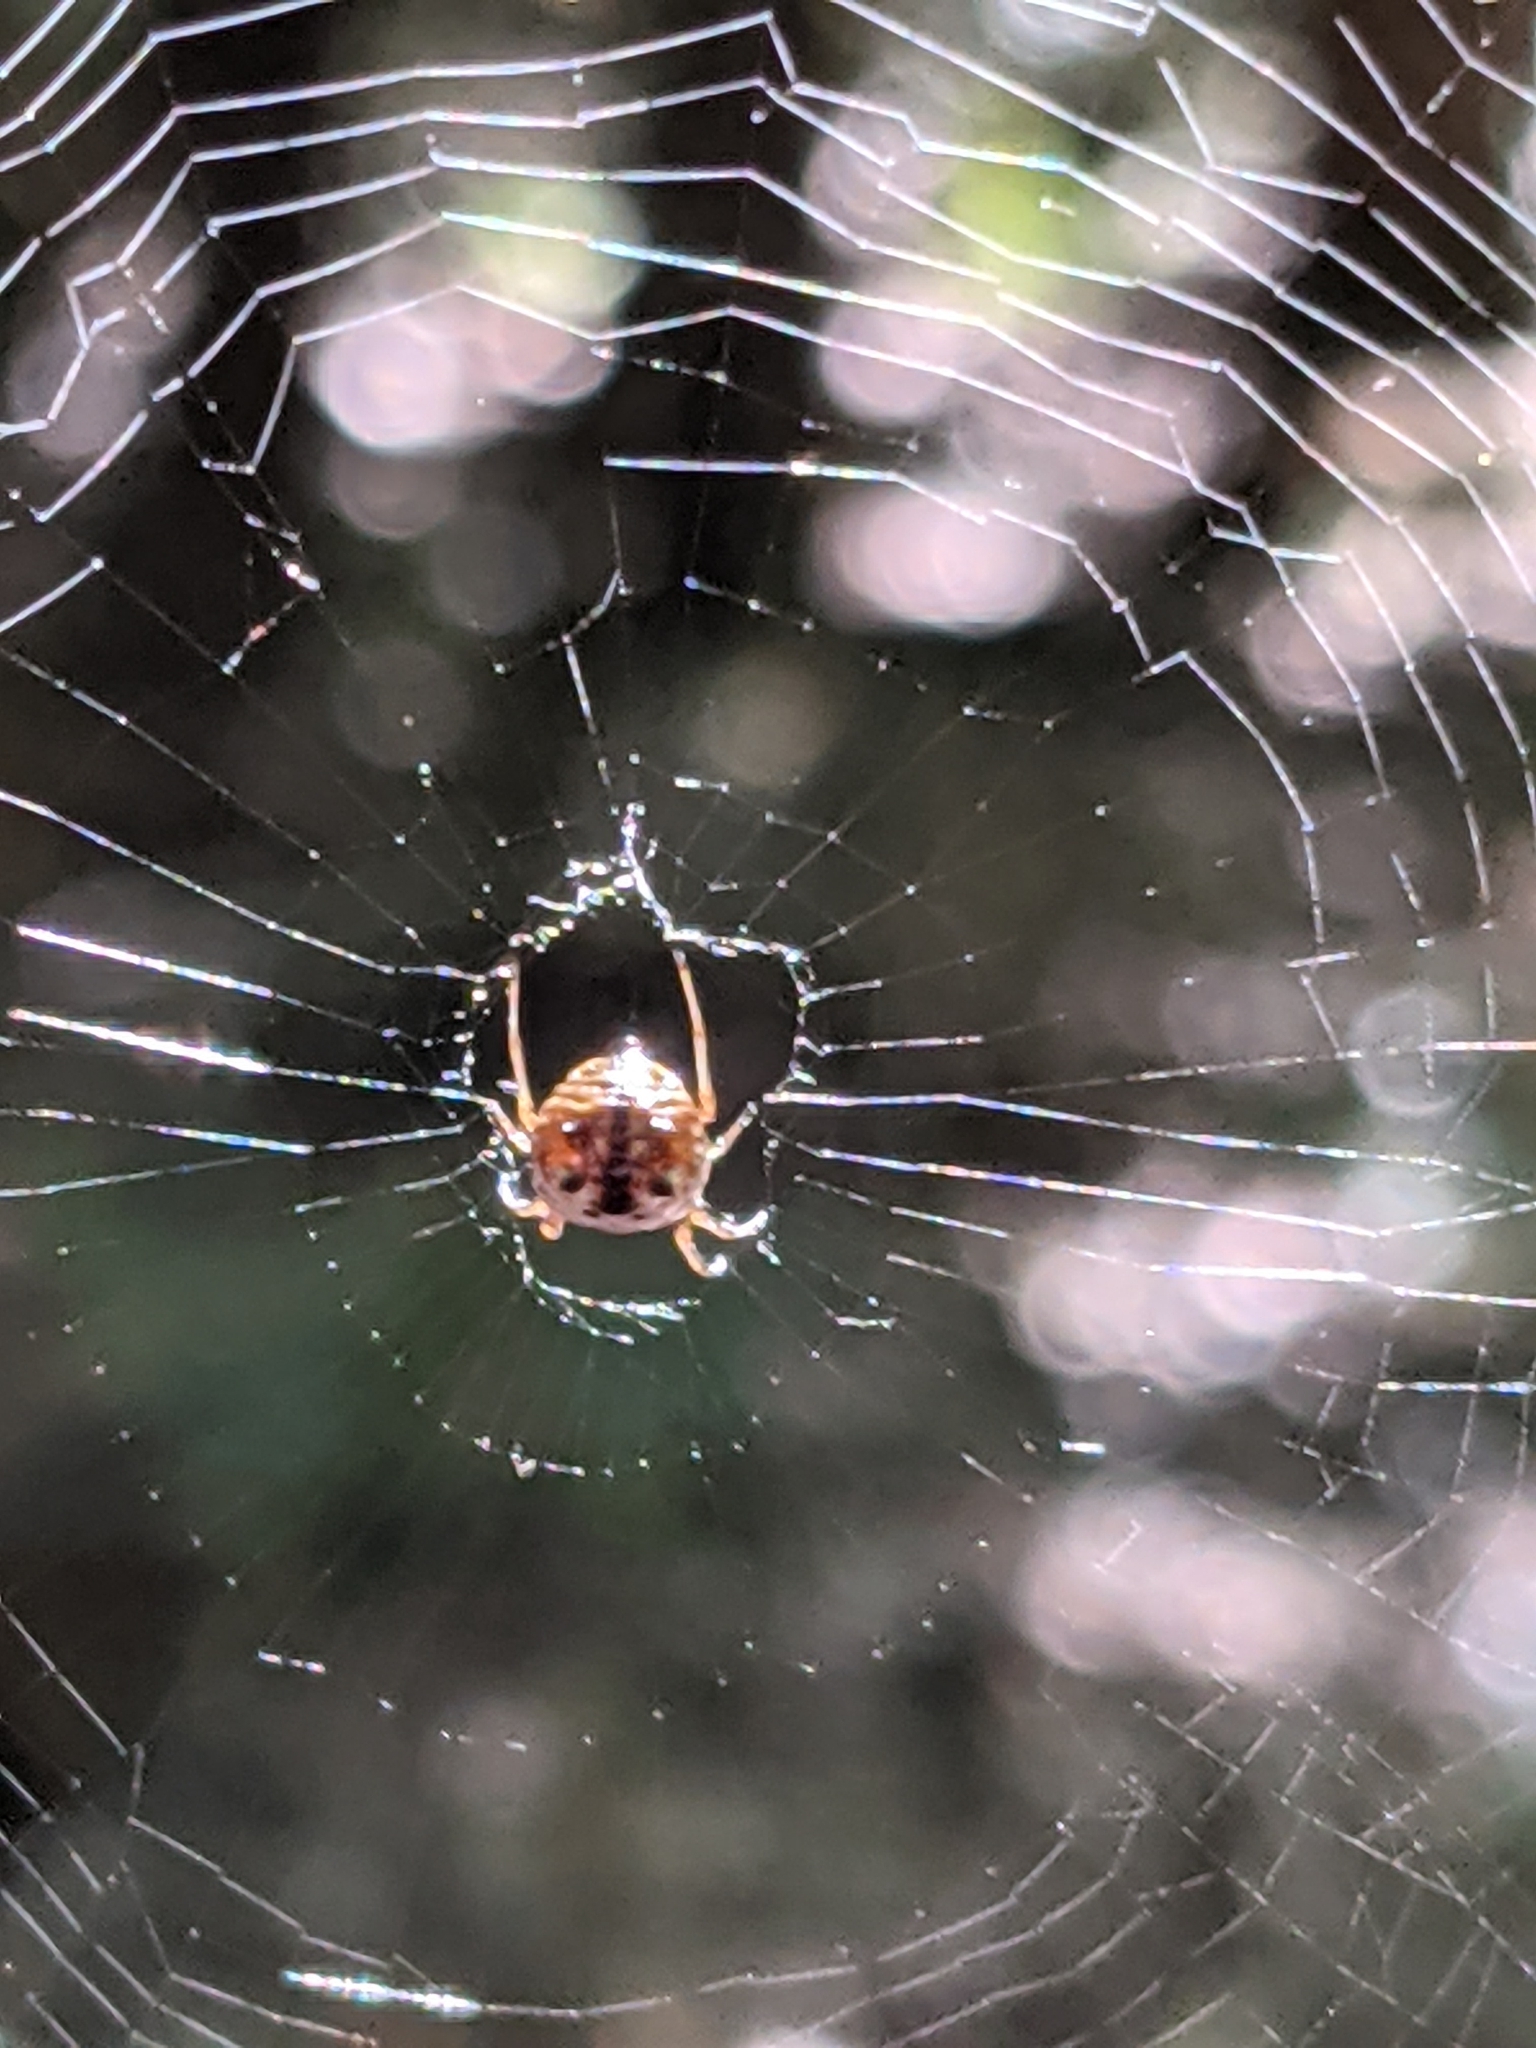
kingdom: Animalia
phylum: Arthropoda
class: Arachnida
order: Araneae
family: Araneidae
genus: Micrathena
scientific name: Micrathena mitrata
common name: Orb weavers
